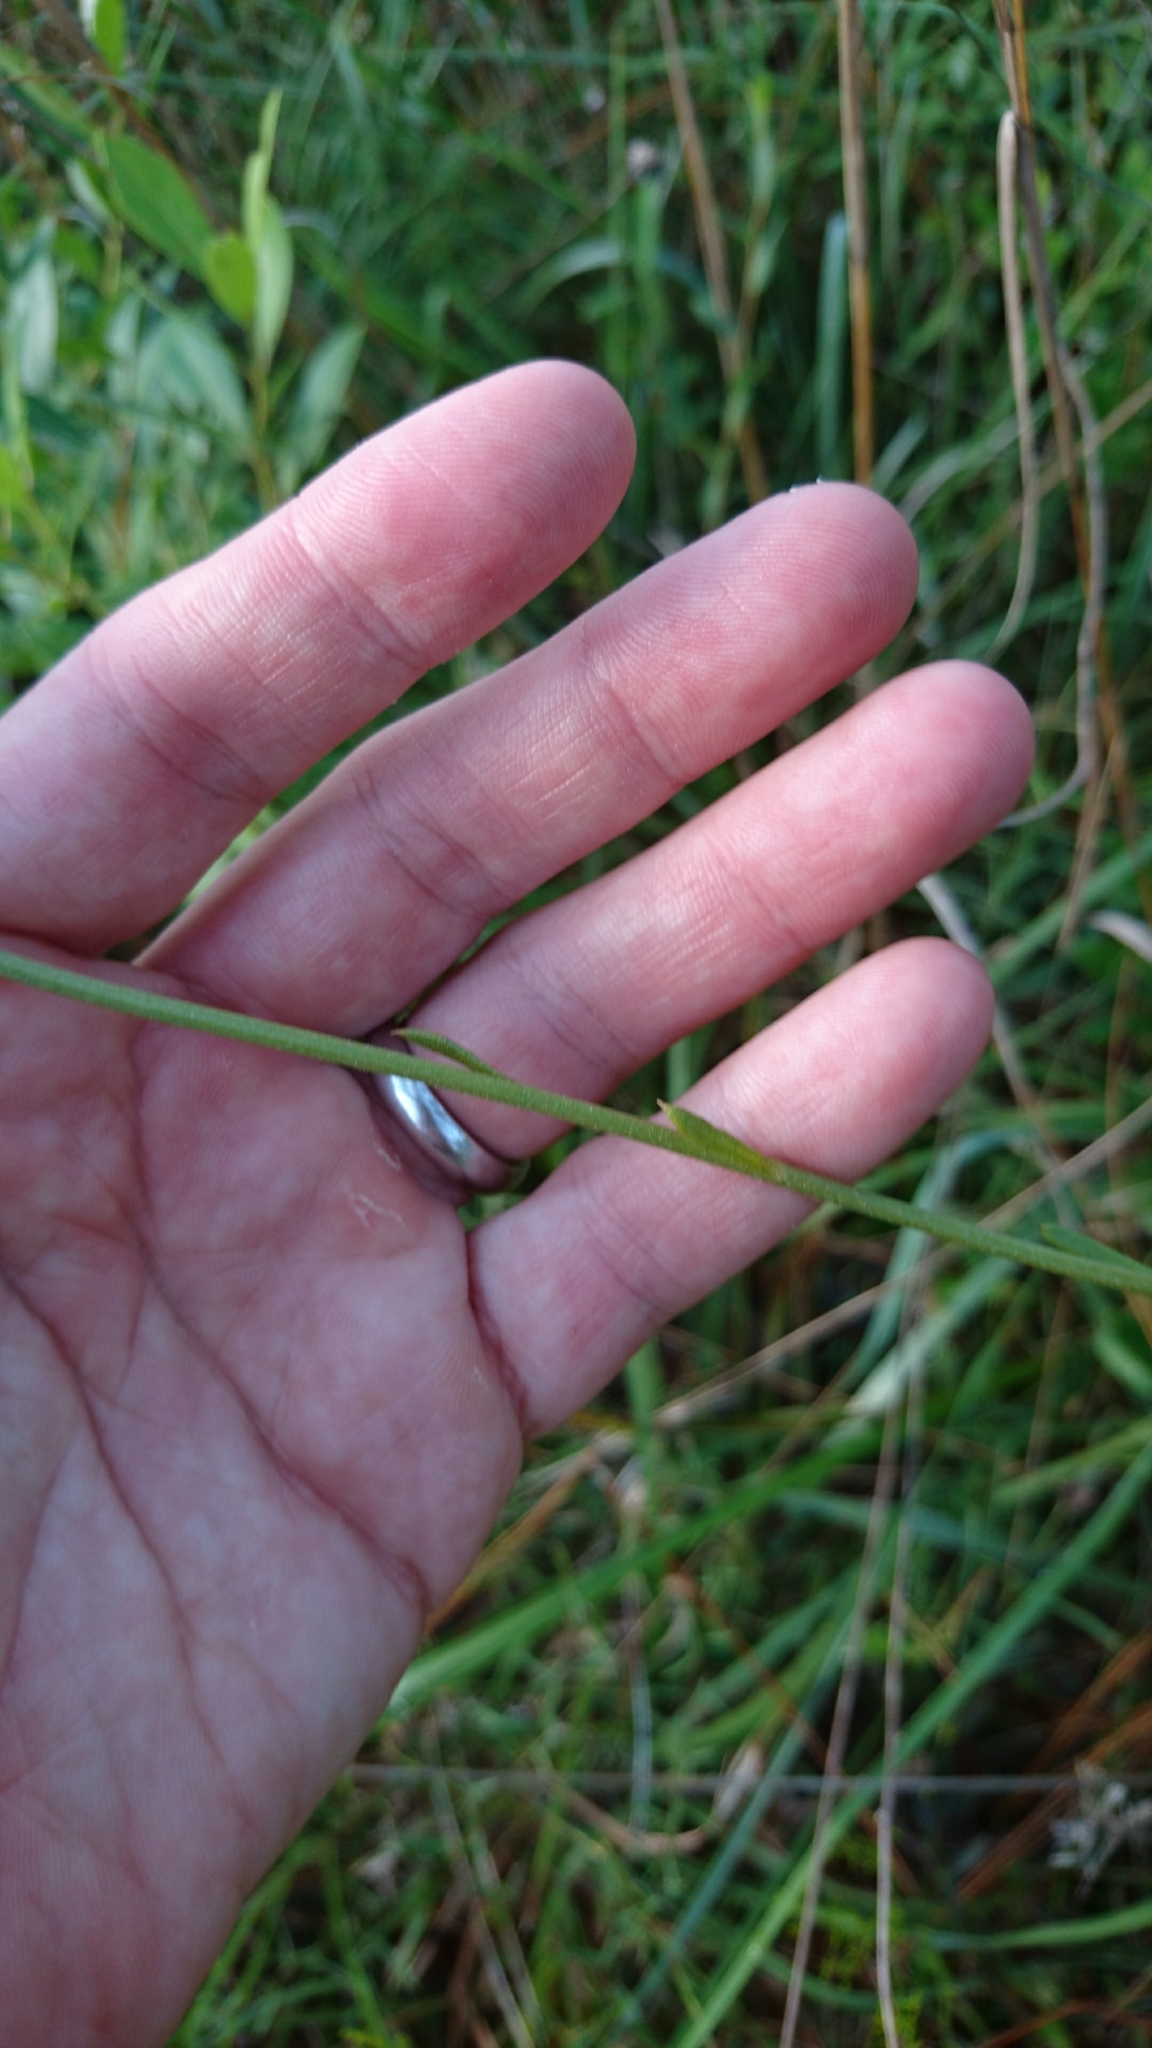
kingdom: Plantae
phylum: Tracheophyta
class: Magnoliopsida
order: Asterales
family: Asteraceae
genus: Helenium
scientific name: Helenium vernale
